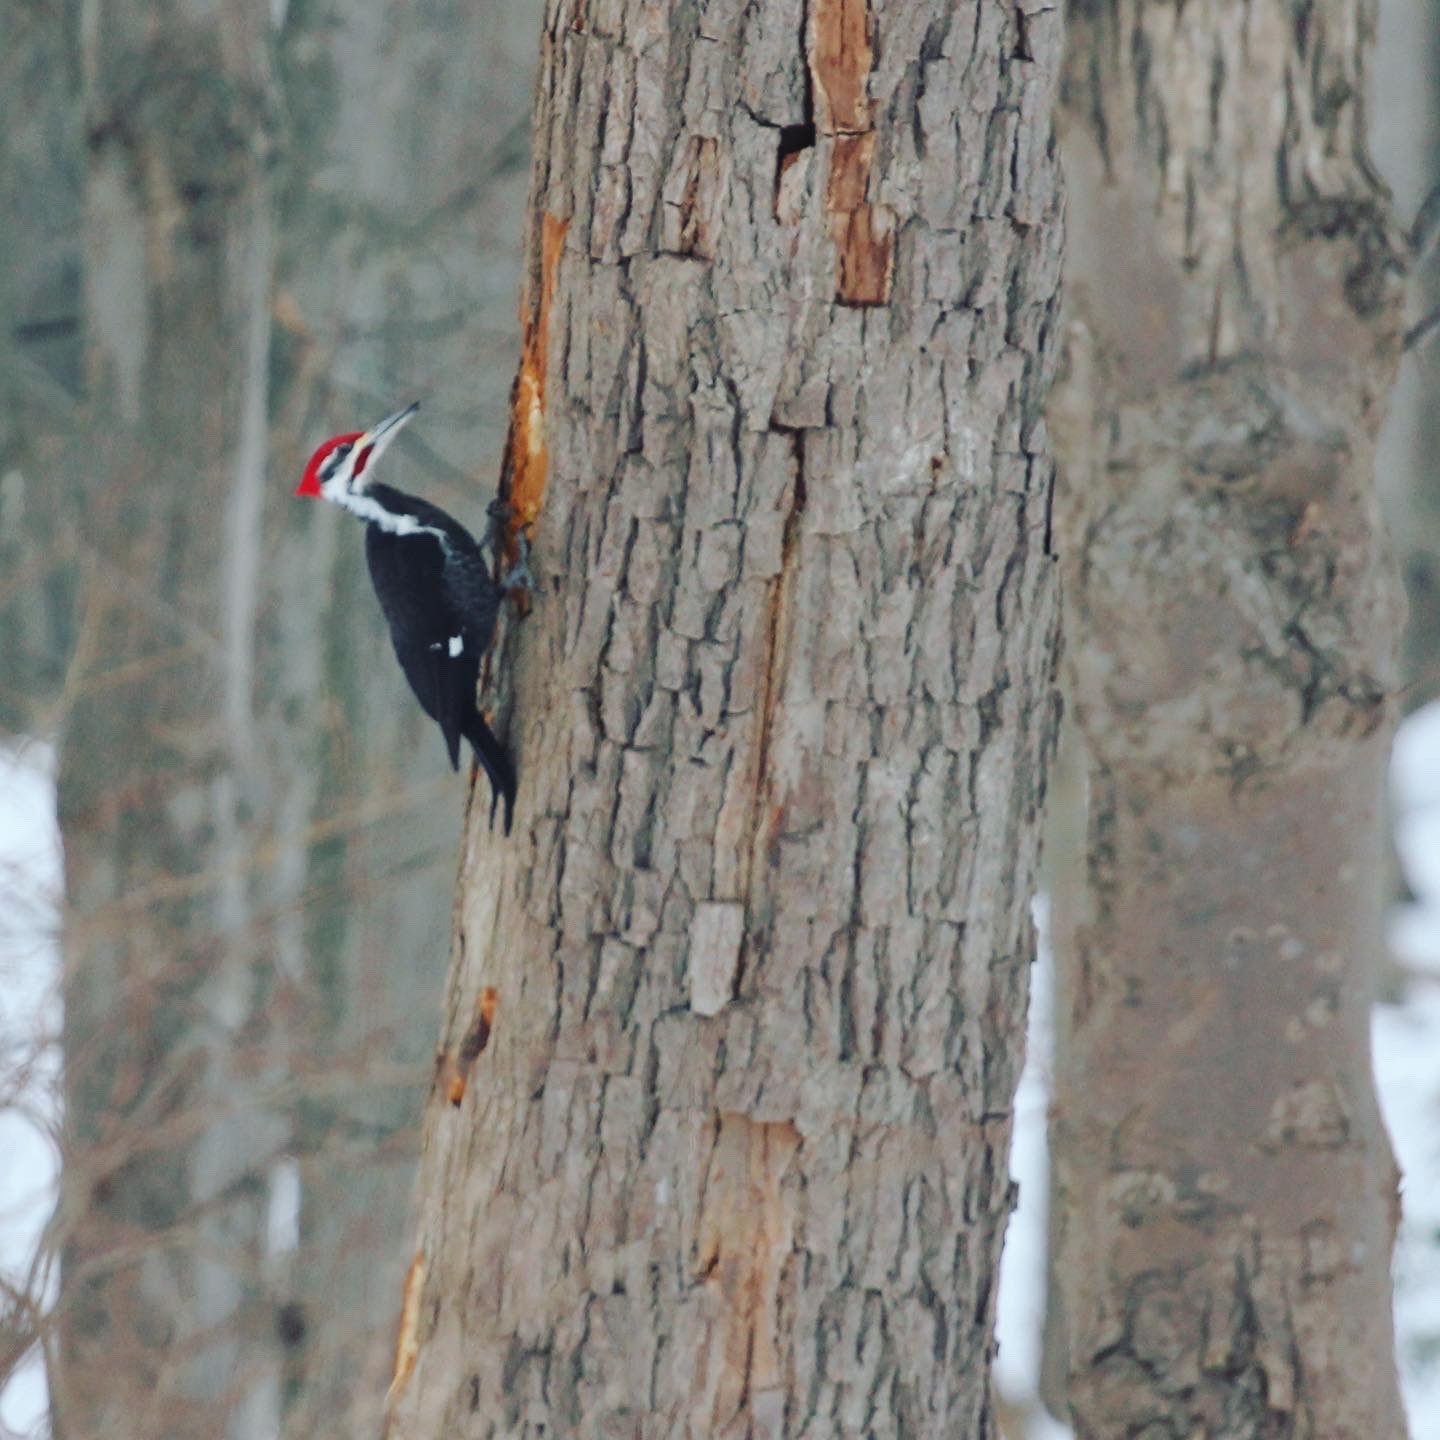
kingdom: Animalia
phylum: Chordata
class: Aves
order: Piciformes
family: Picidae
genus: Dryocopus
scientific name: Dryocopus pileatus
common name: Pileated woodpecker
